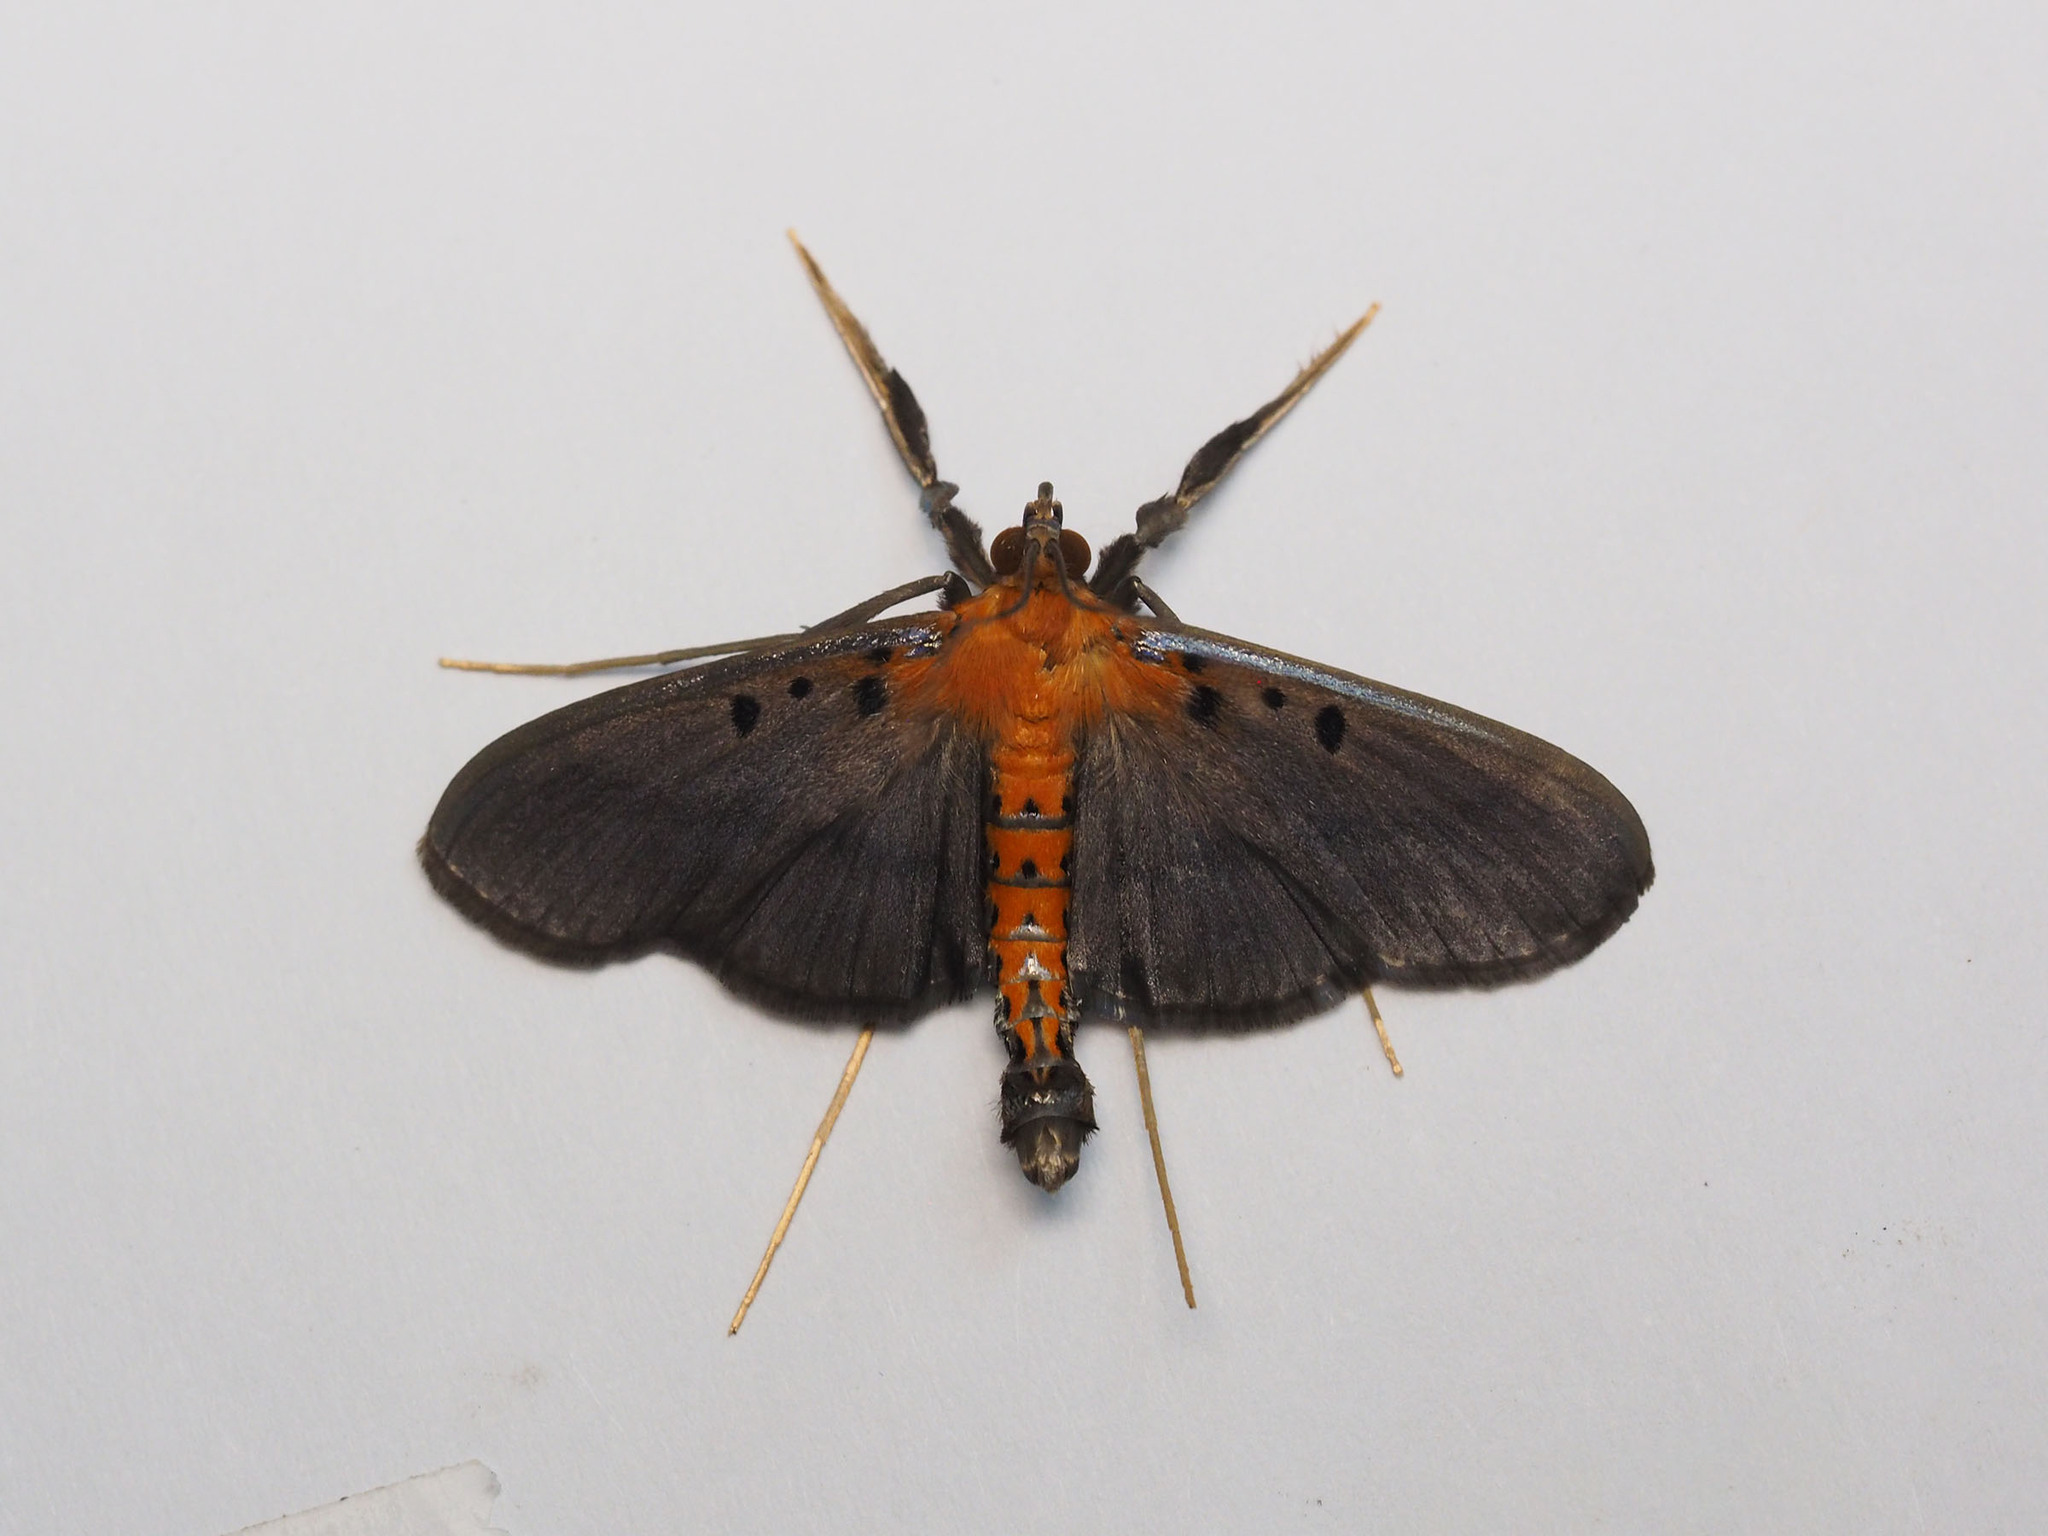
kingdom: Animalia
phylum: Arthropoda
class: Insecta
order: Lepidoptera
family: Crambidae
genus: Filodes
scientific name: Filodes fulvidorsalis
